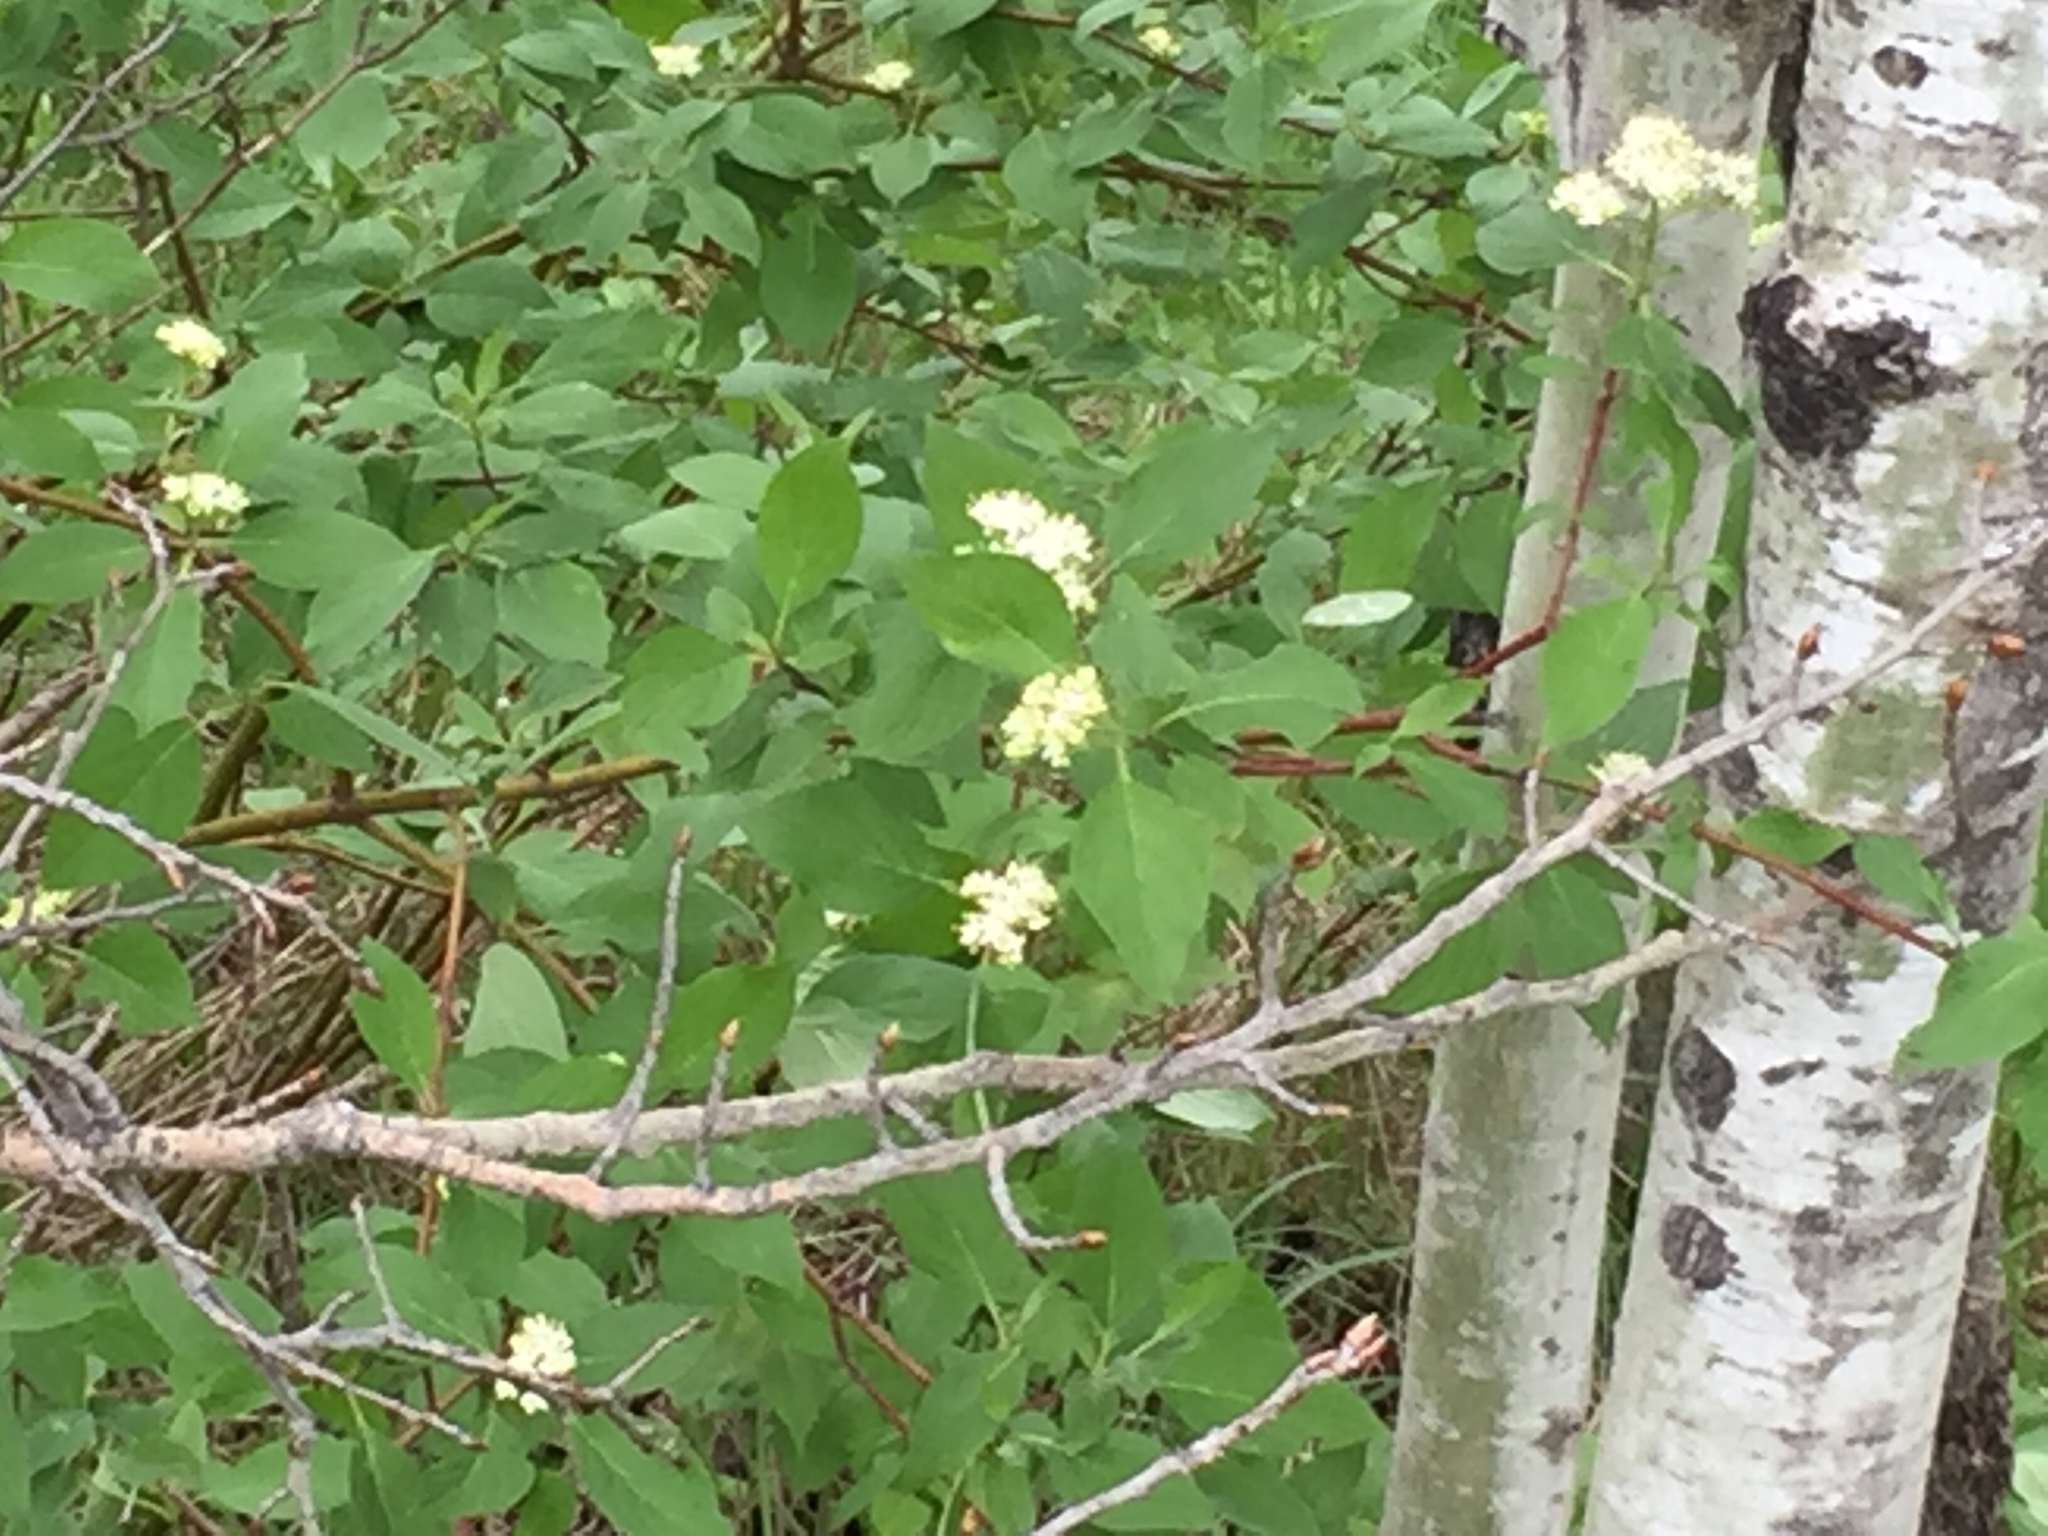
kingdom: Plantae
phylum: Tracheophyta
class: Magnoliopsida
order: Cornales
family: Cornaceae
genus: Cornus
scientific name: Cornus sericea
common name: Red-osier dogwood
